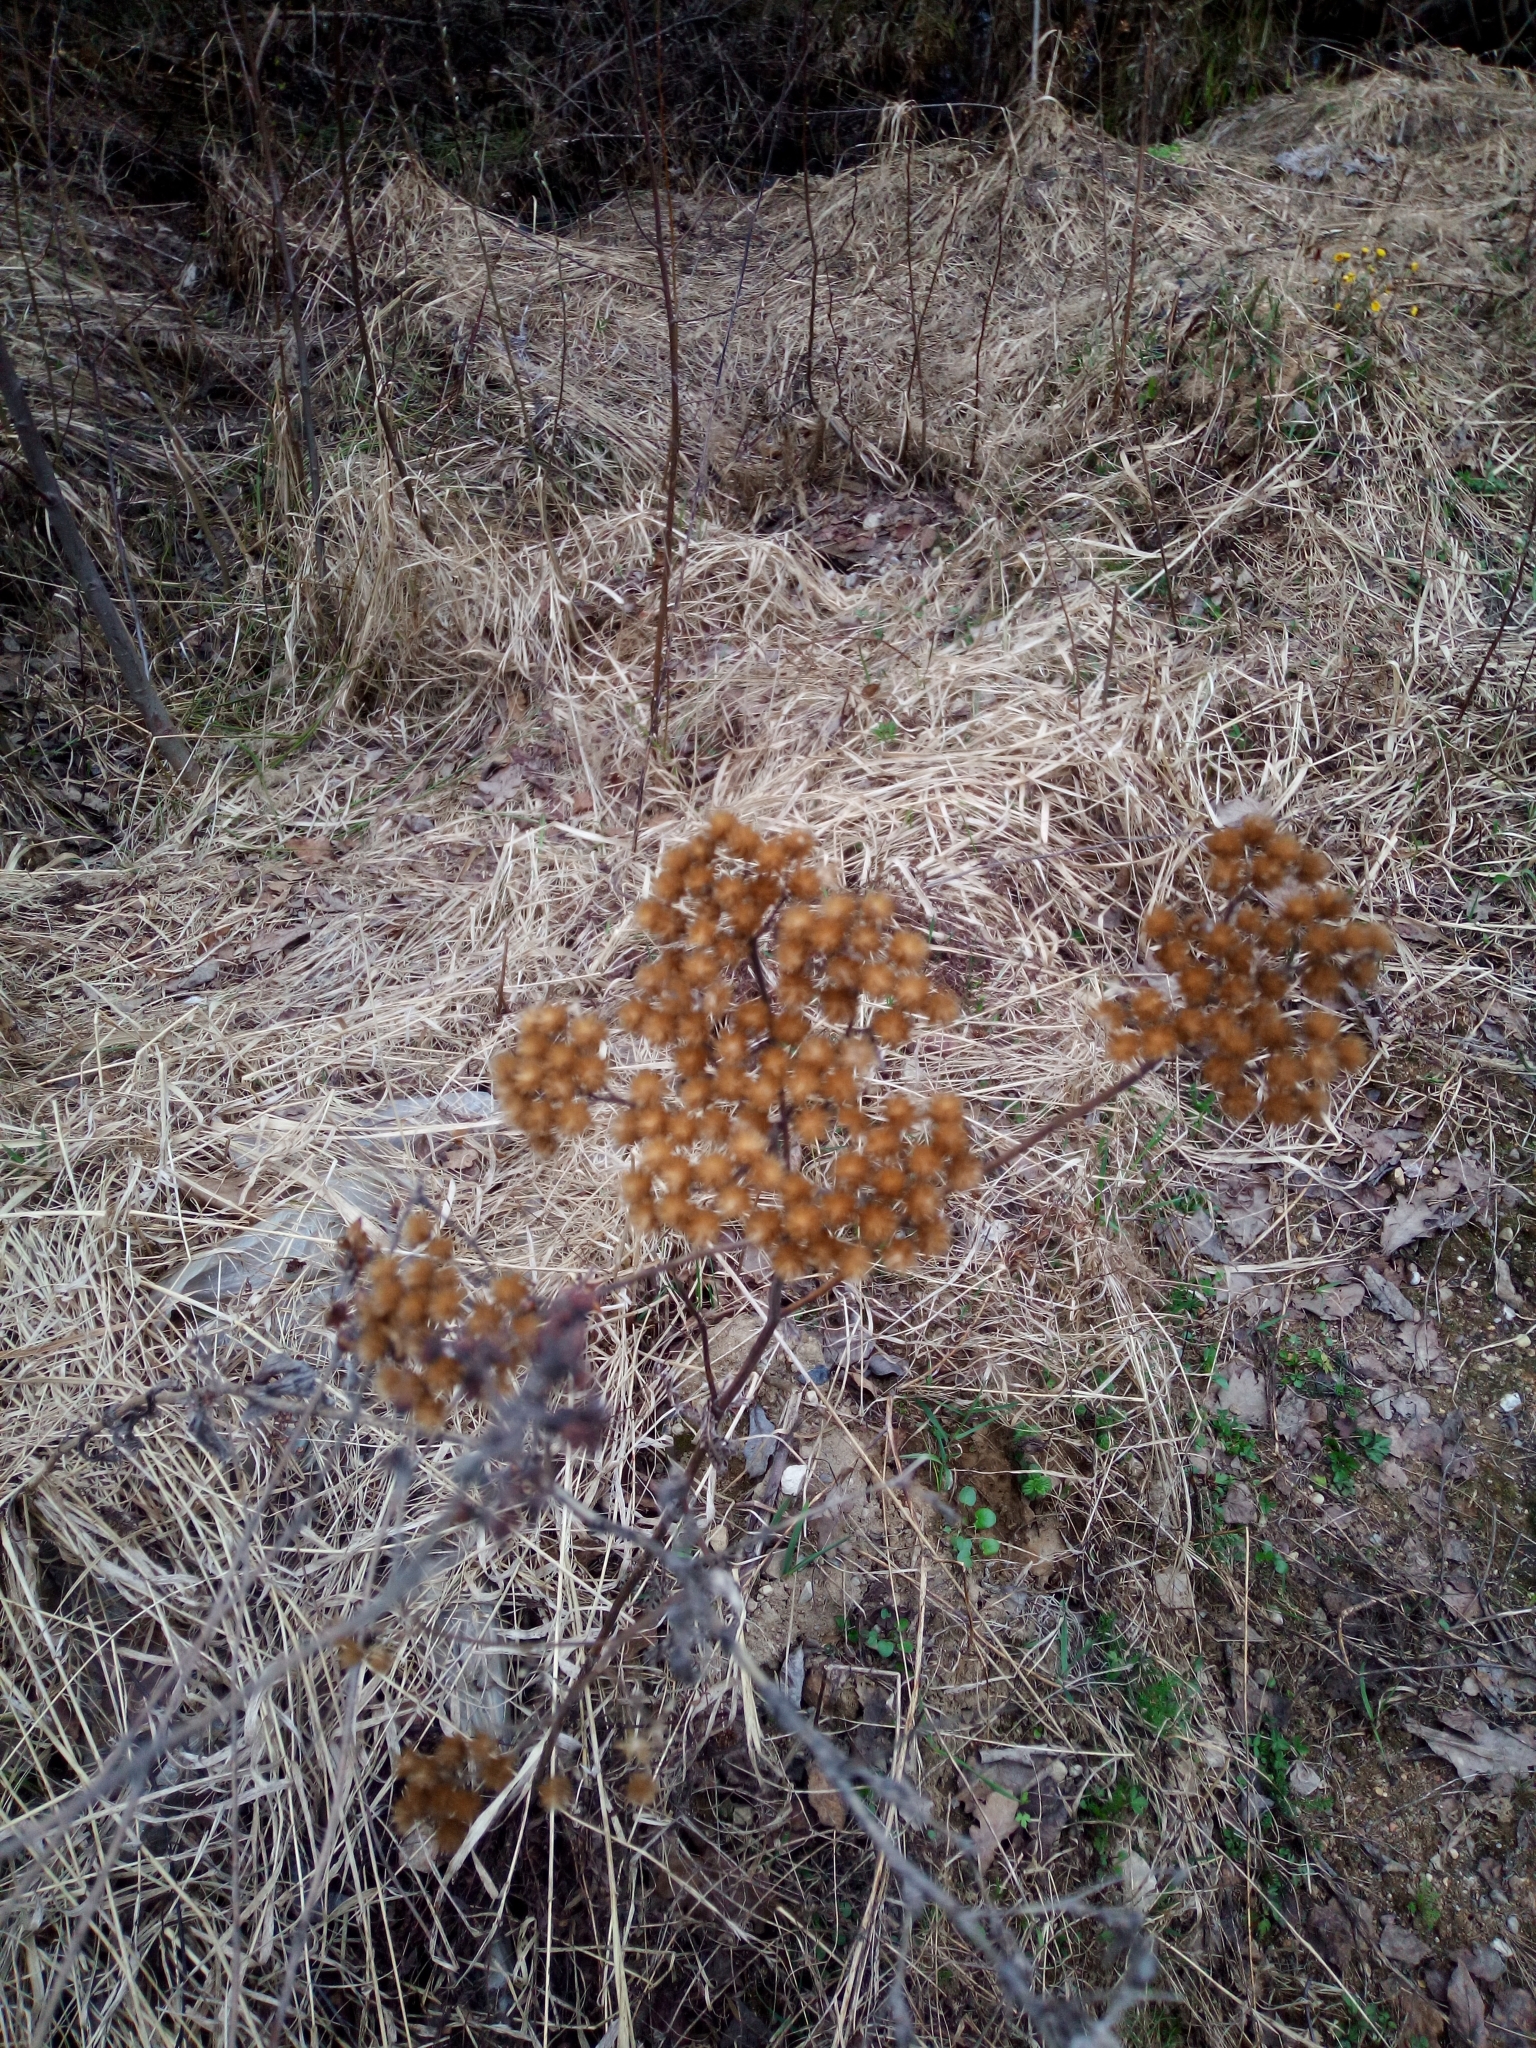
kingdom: Plantae
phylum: Tracheophyta
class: Magnoliopsida
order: Asterales
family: Asteraceae
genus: Tanacetum
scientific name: Tanacetum vulgare
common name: Common tansy
